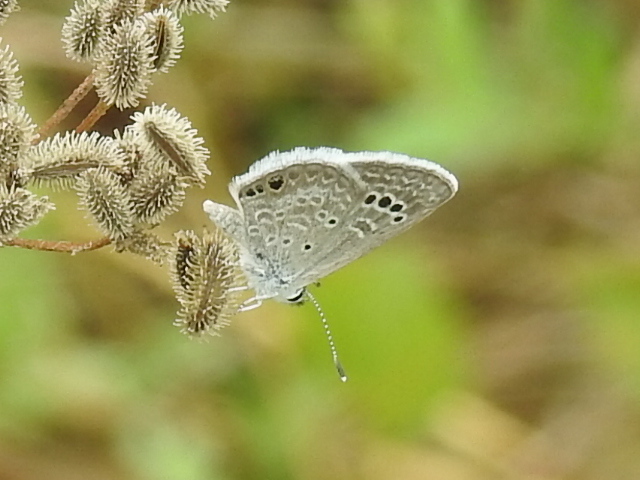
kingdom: Animalia
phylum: Arthropoda
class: Insecta
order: Lepidoptera
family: Lycaenidae
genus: Echinargus
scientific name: Echinargus isola
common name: Reakirt's blue
